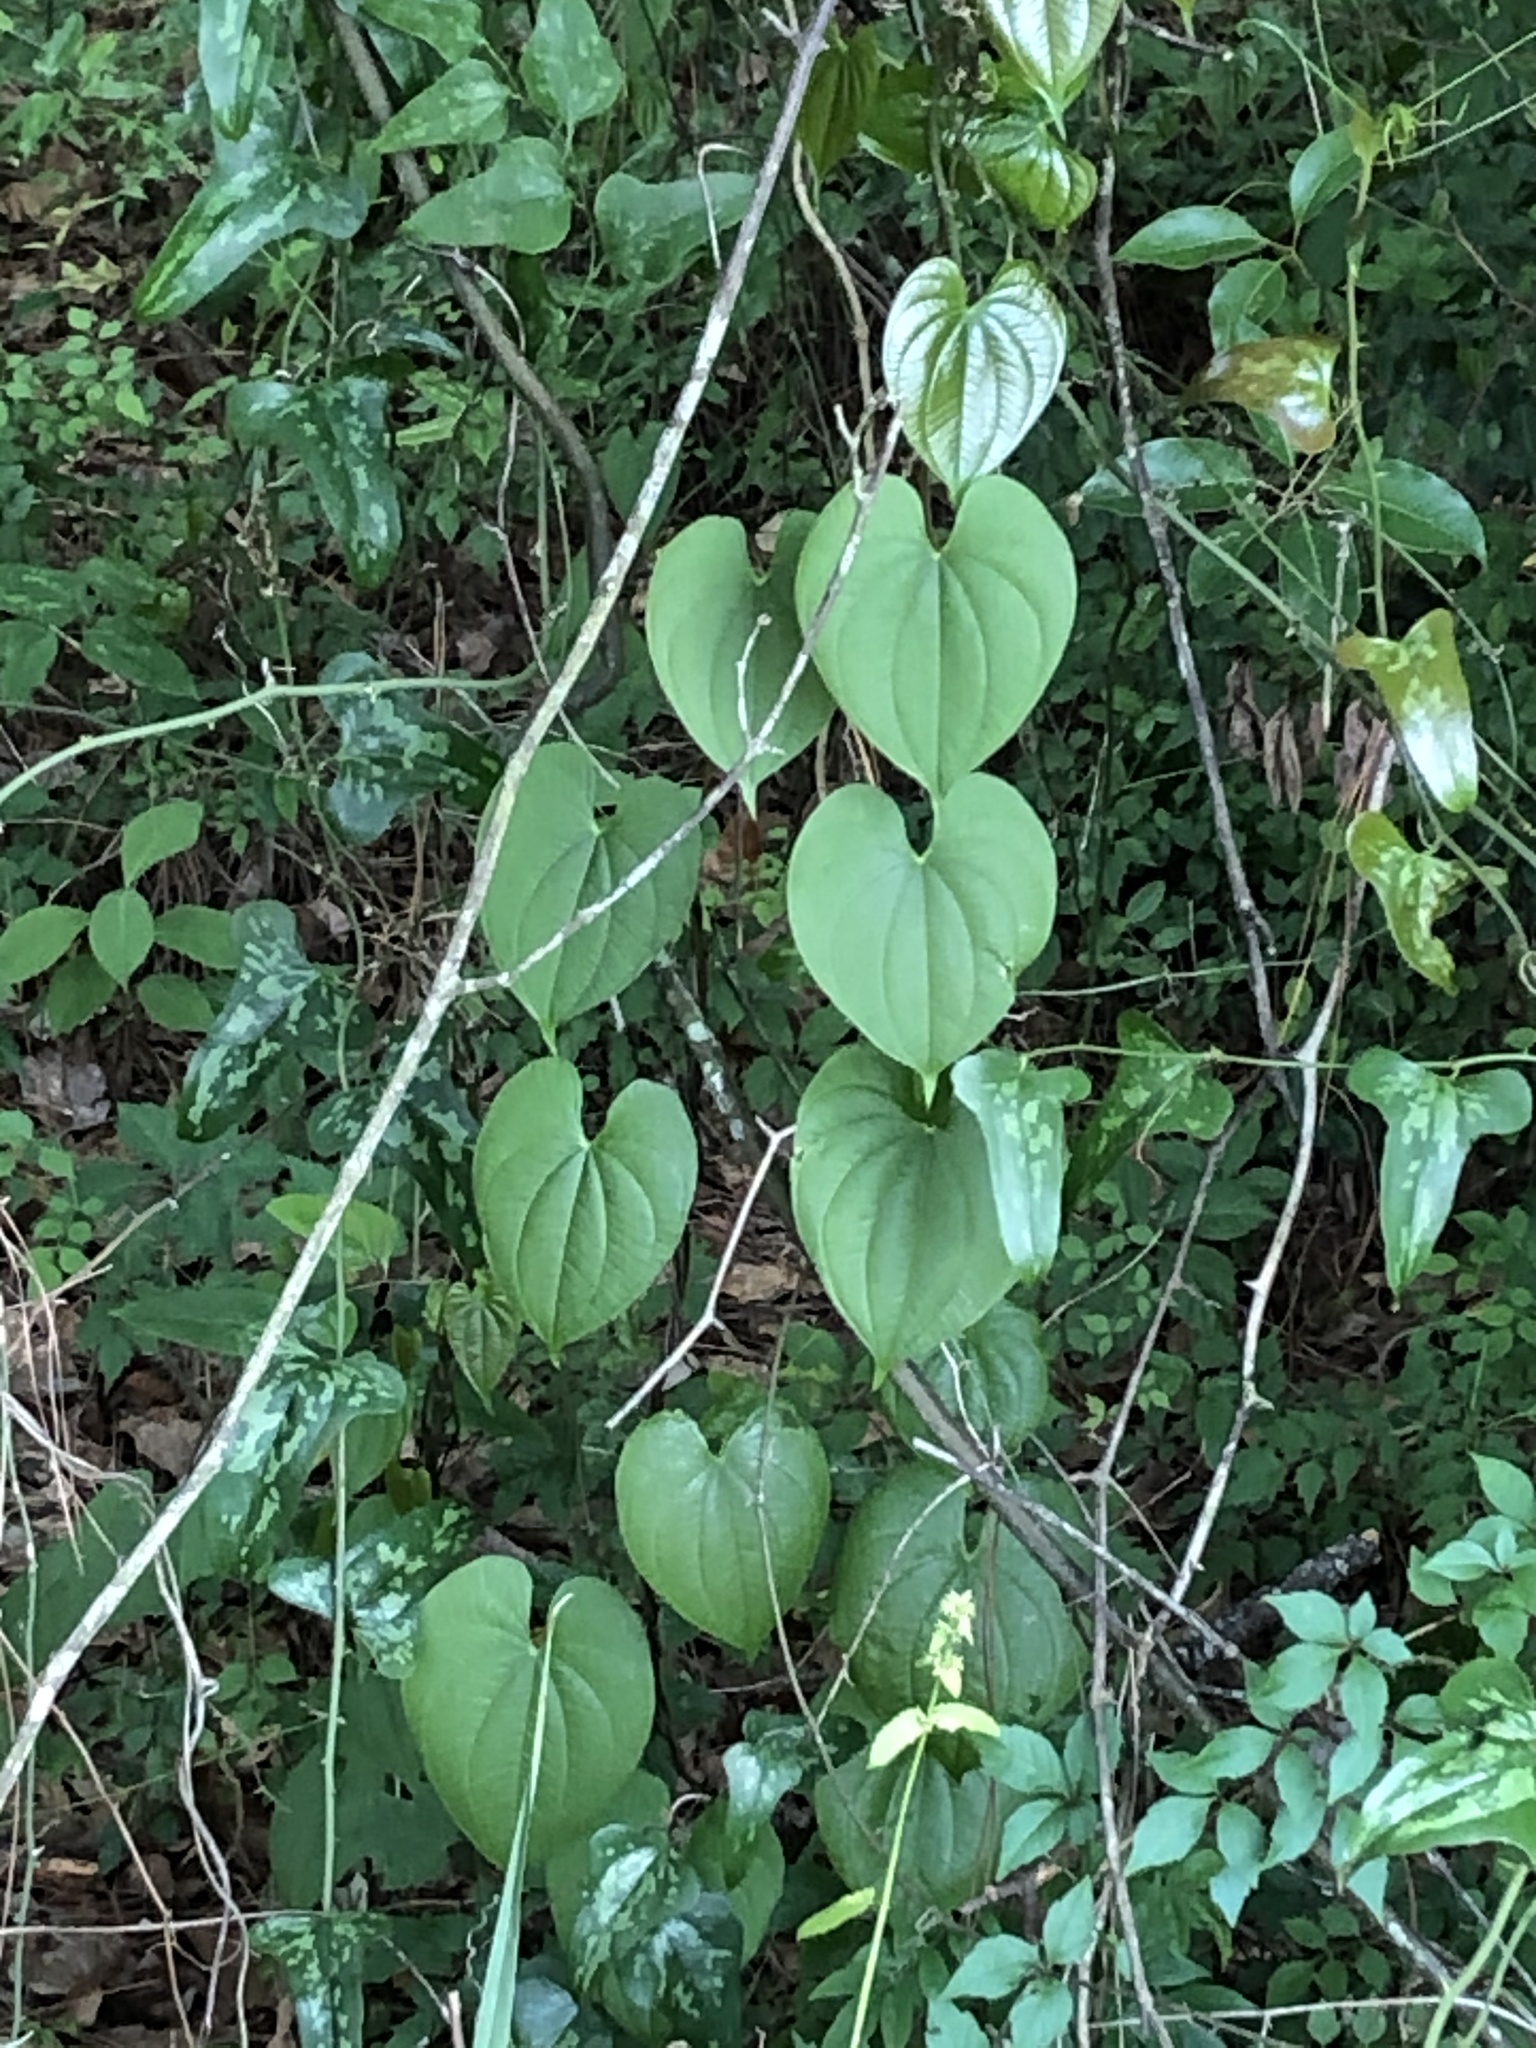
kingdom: Plantae
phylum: Tracheophyta
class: Liliopsida
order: Dioscoreales
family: Dioscoreaceae
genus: Dioscorea
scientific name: Dioscorea bulbifera
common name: Air yam
